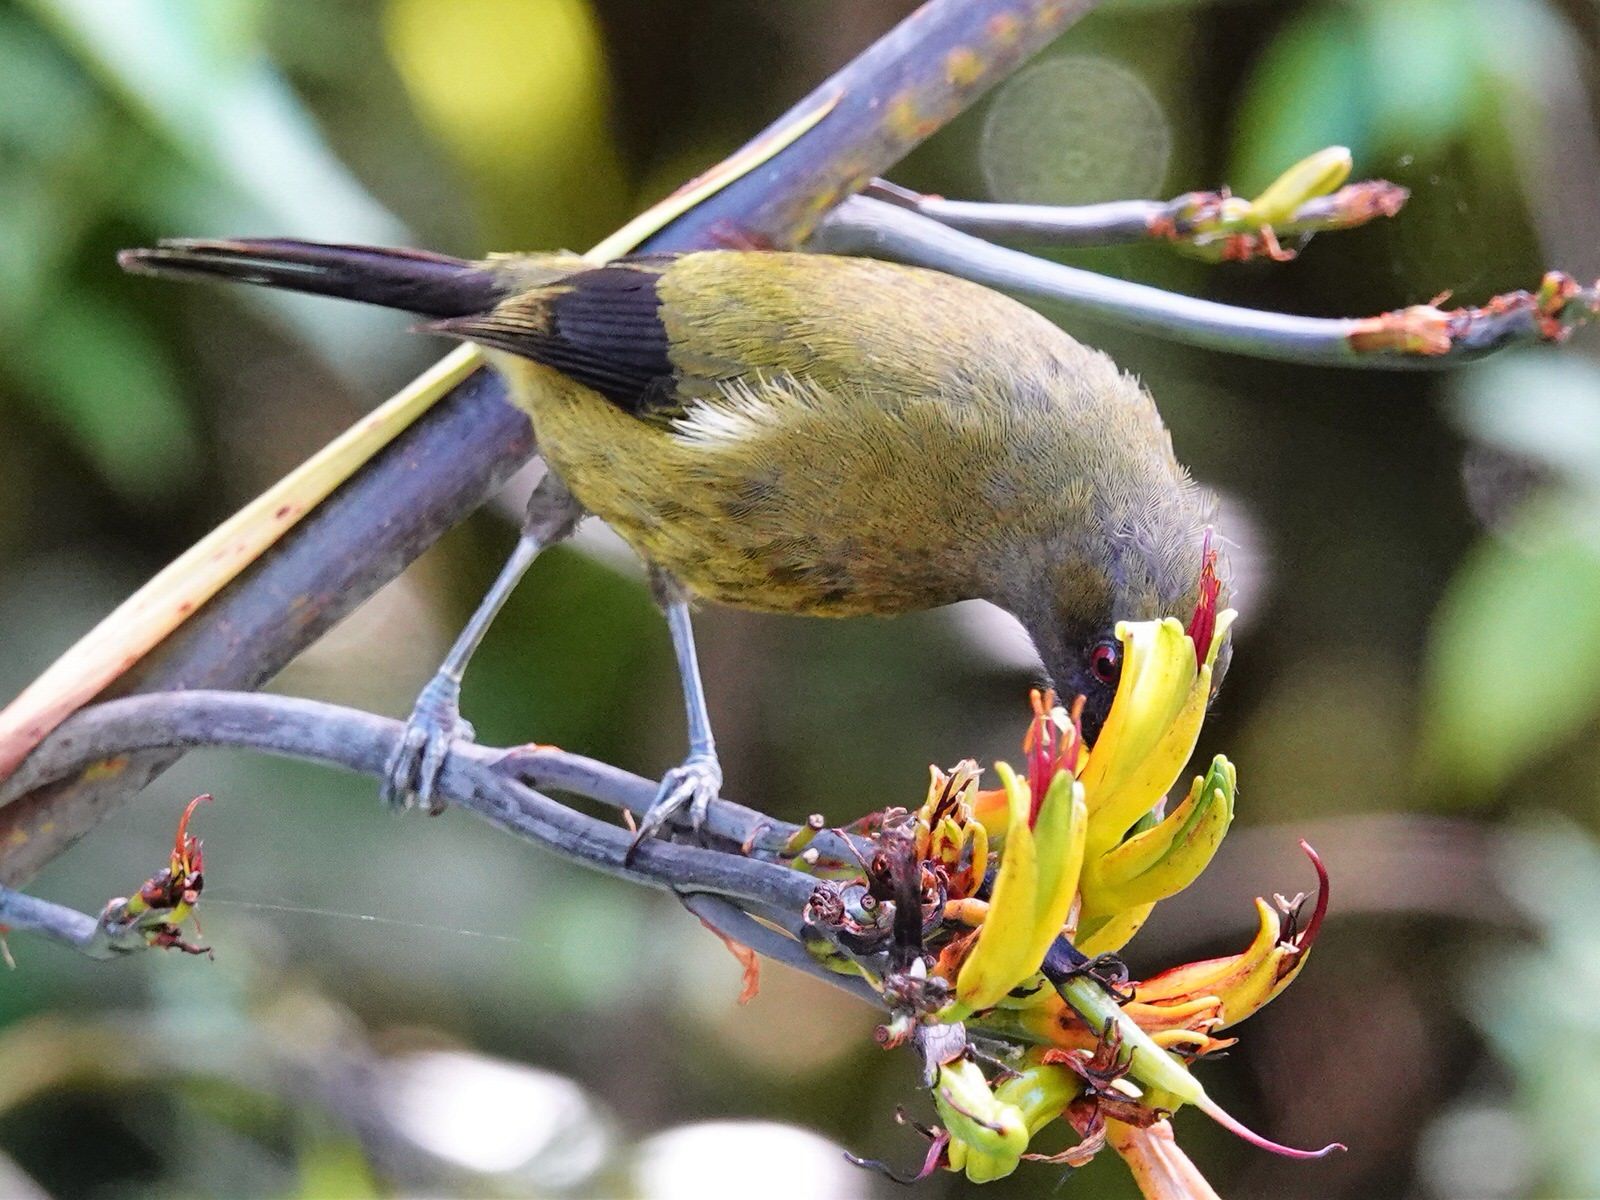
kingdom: Animalia
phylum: Chordata
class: Aves
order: Passeriformes
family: Meliphagidae
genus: Anthornis
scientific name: Anthornis melanura
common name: New zealand bellbird
